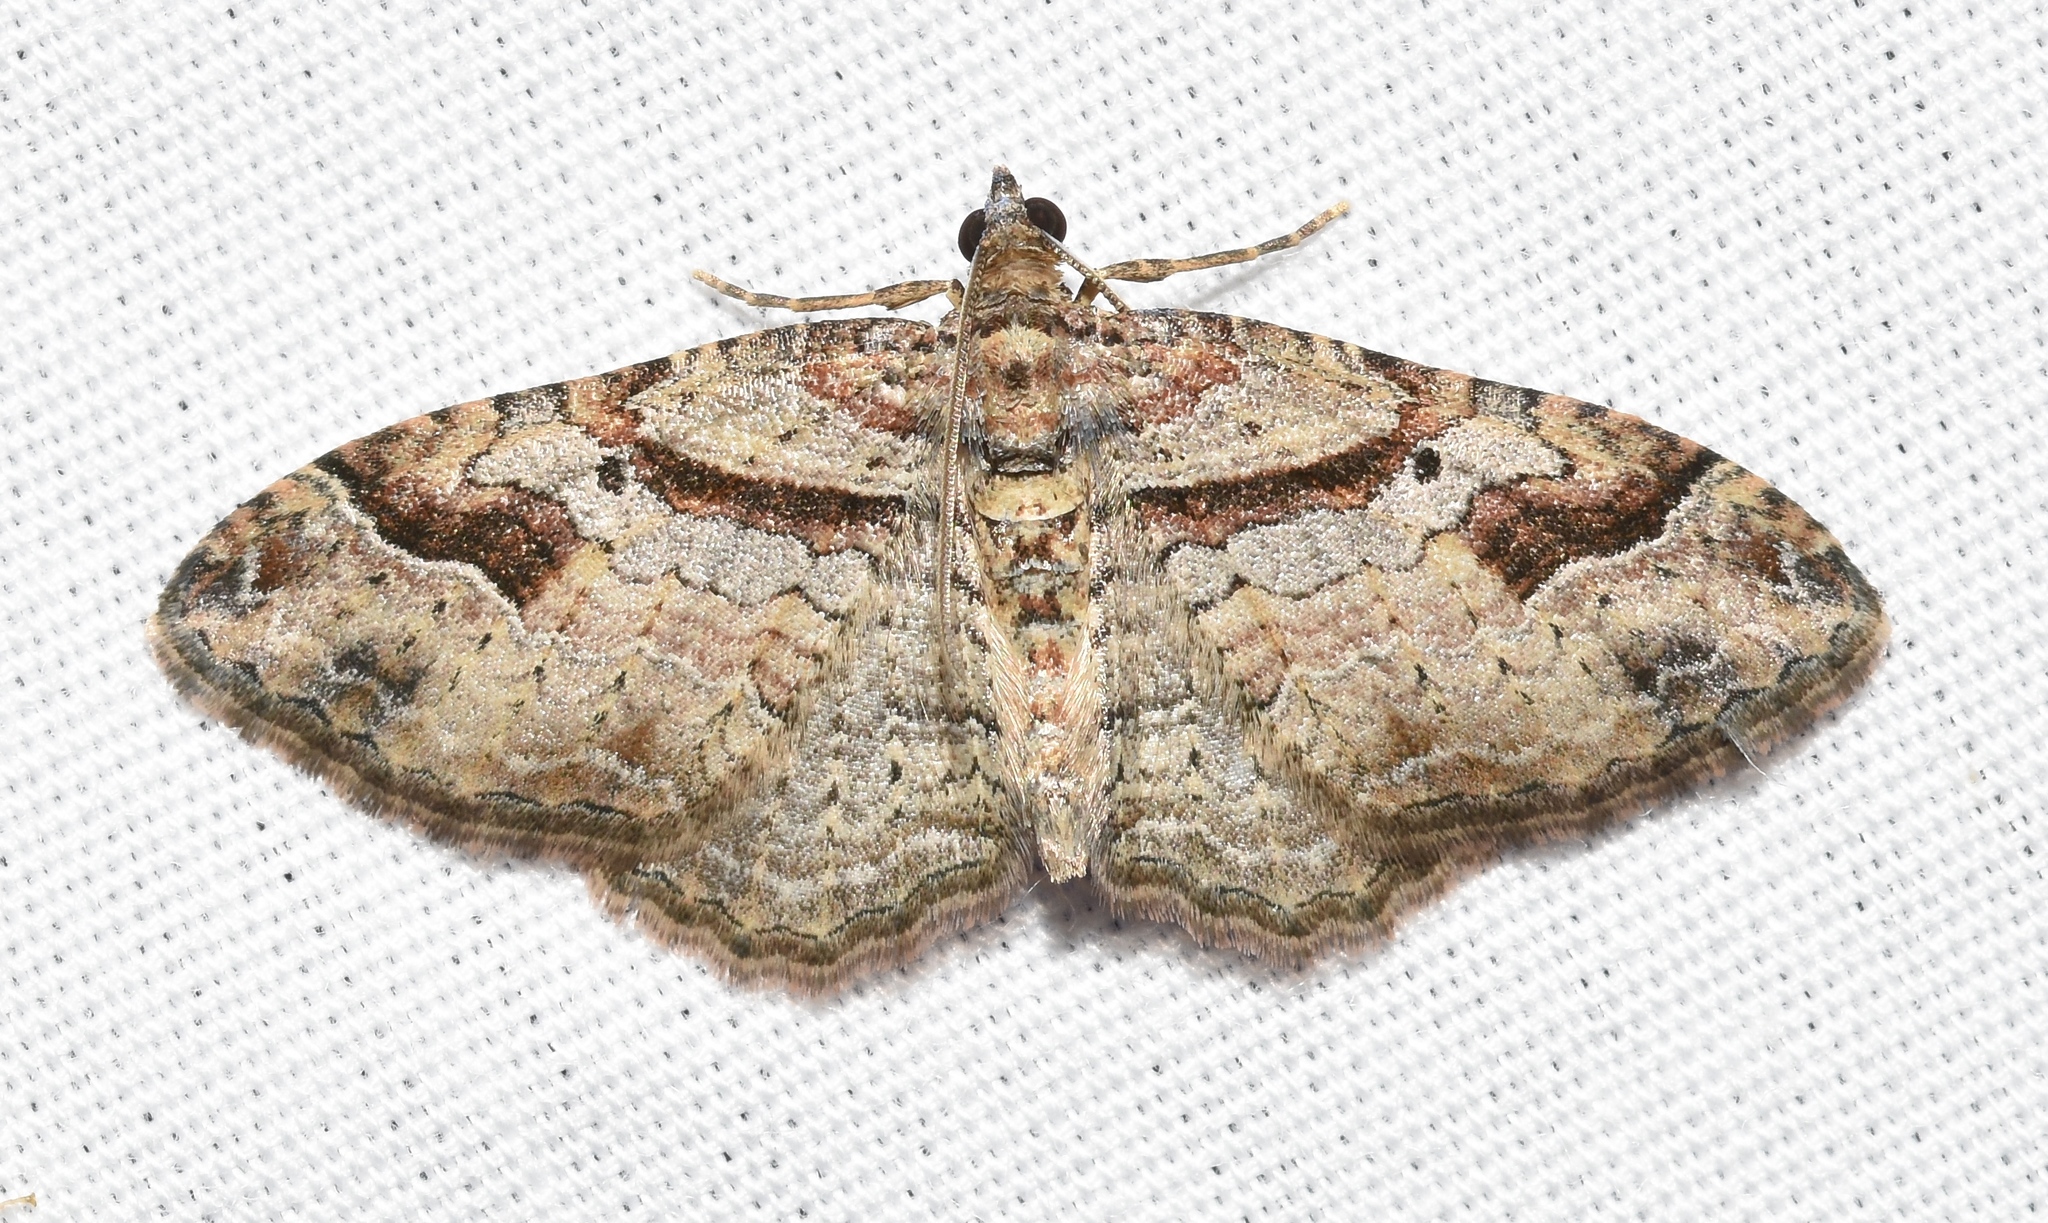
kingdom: Animalia
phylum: Arthropoda
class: Insecta
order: Lepidoptera
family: Geometridae
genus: Costaconvexa
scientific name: Costaconvexa centrostrigaria
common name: Bent-line carpet
